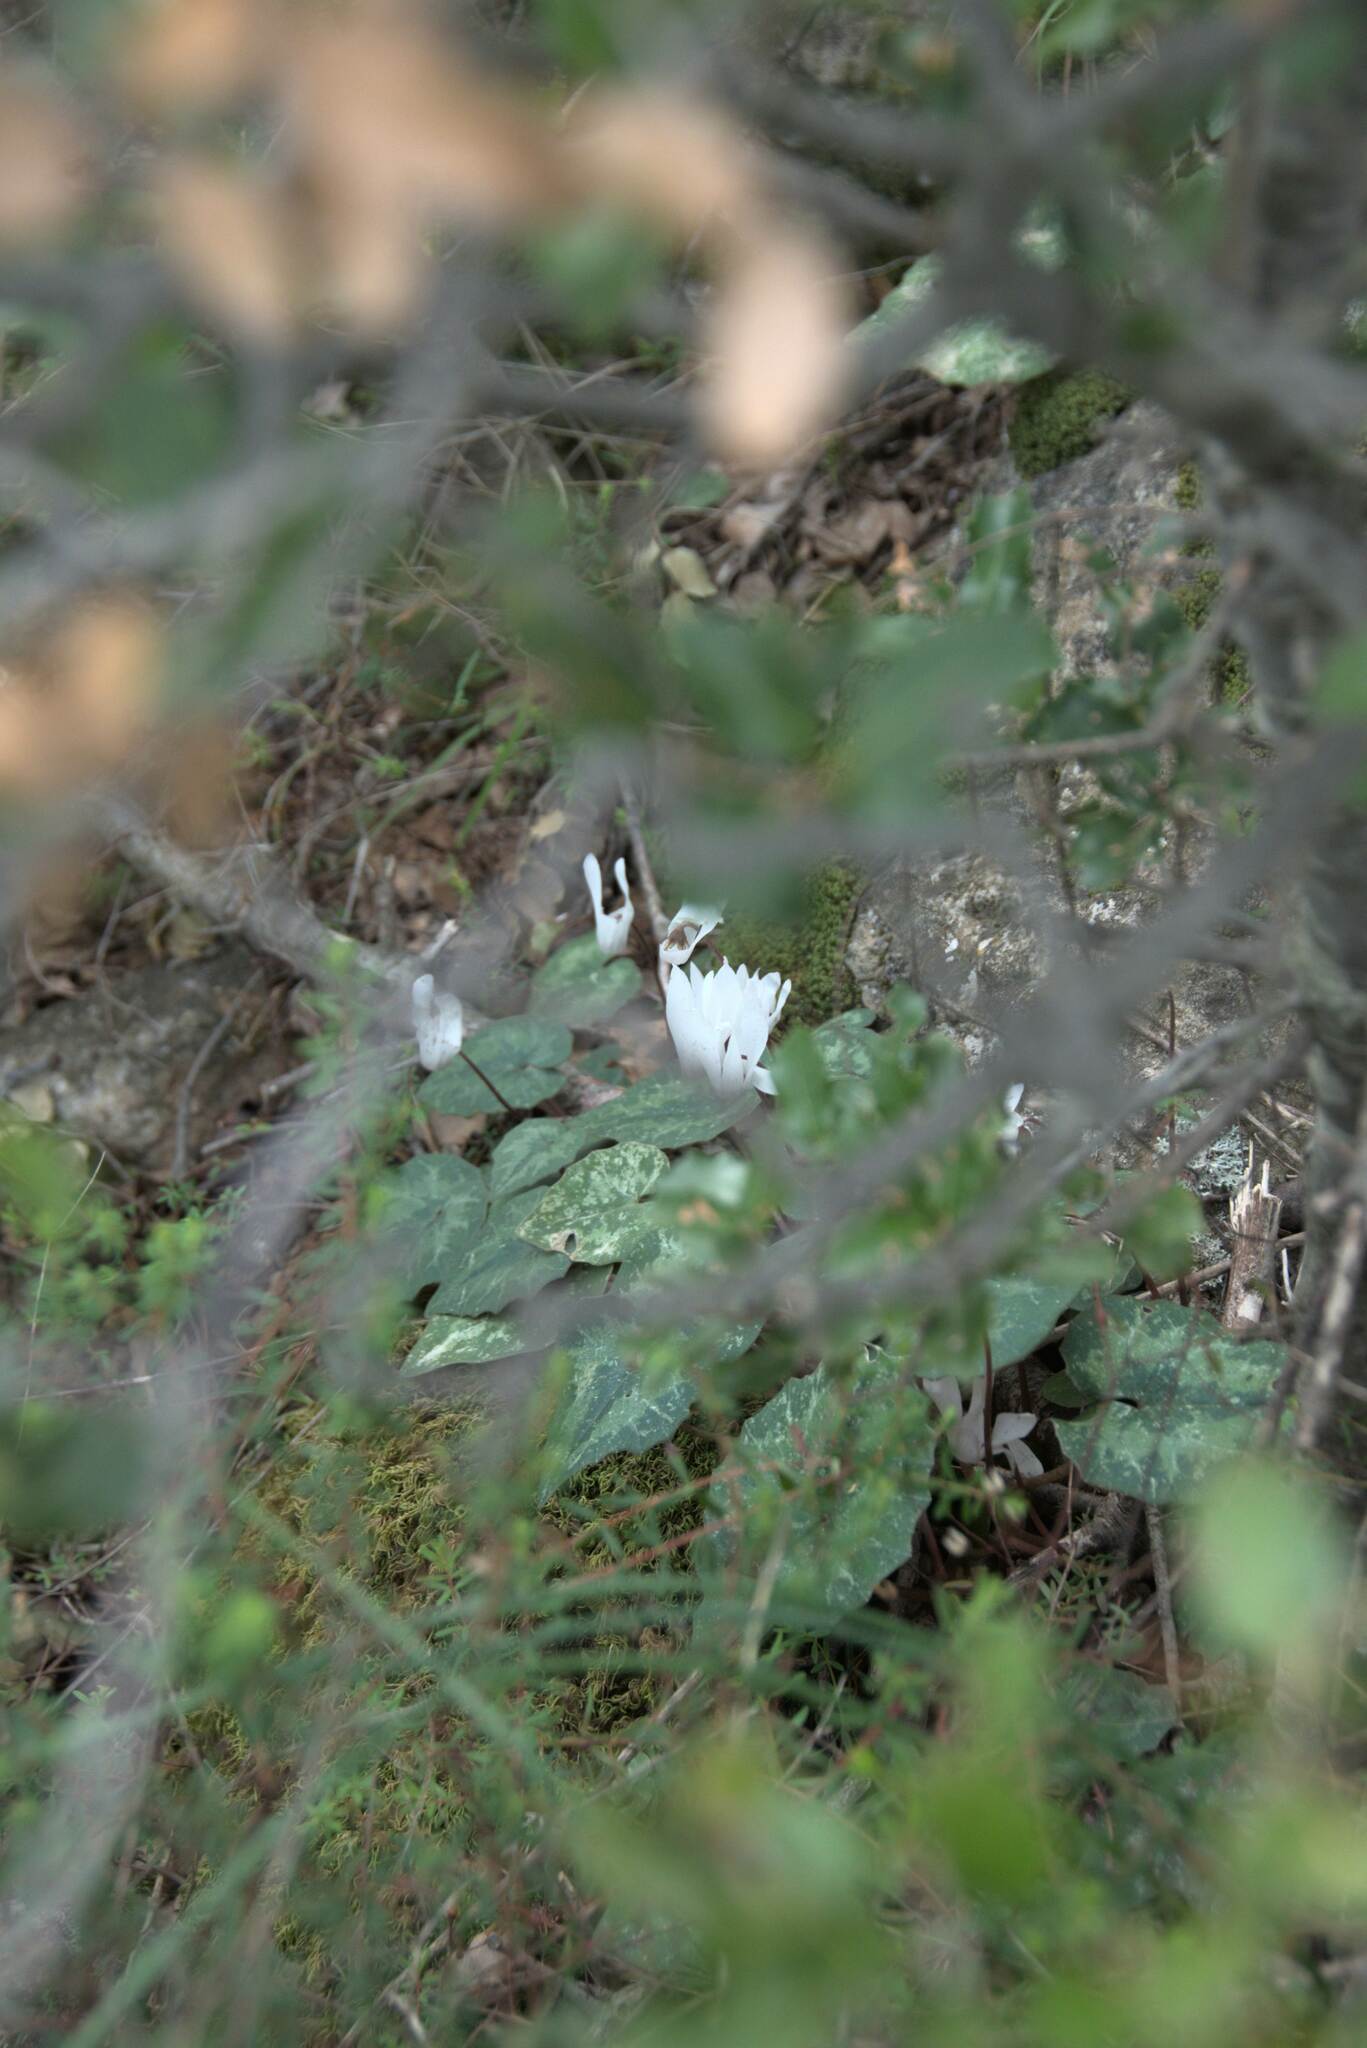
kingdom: Plantae
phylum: Tracheophyta
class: Magnoliopsida
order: Ericales
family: Primulaceae
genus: Cyclamen
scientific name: Cyclamen creticum
